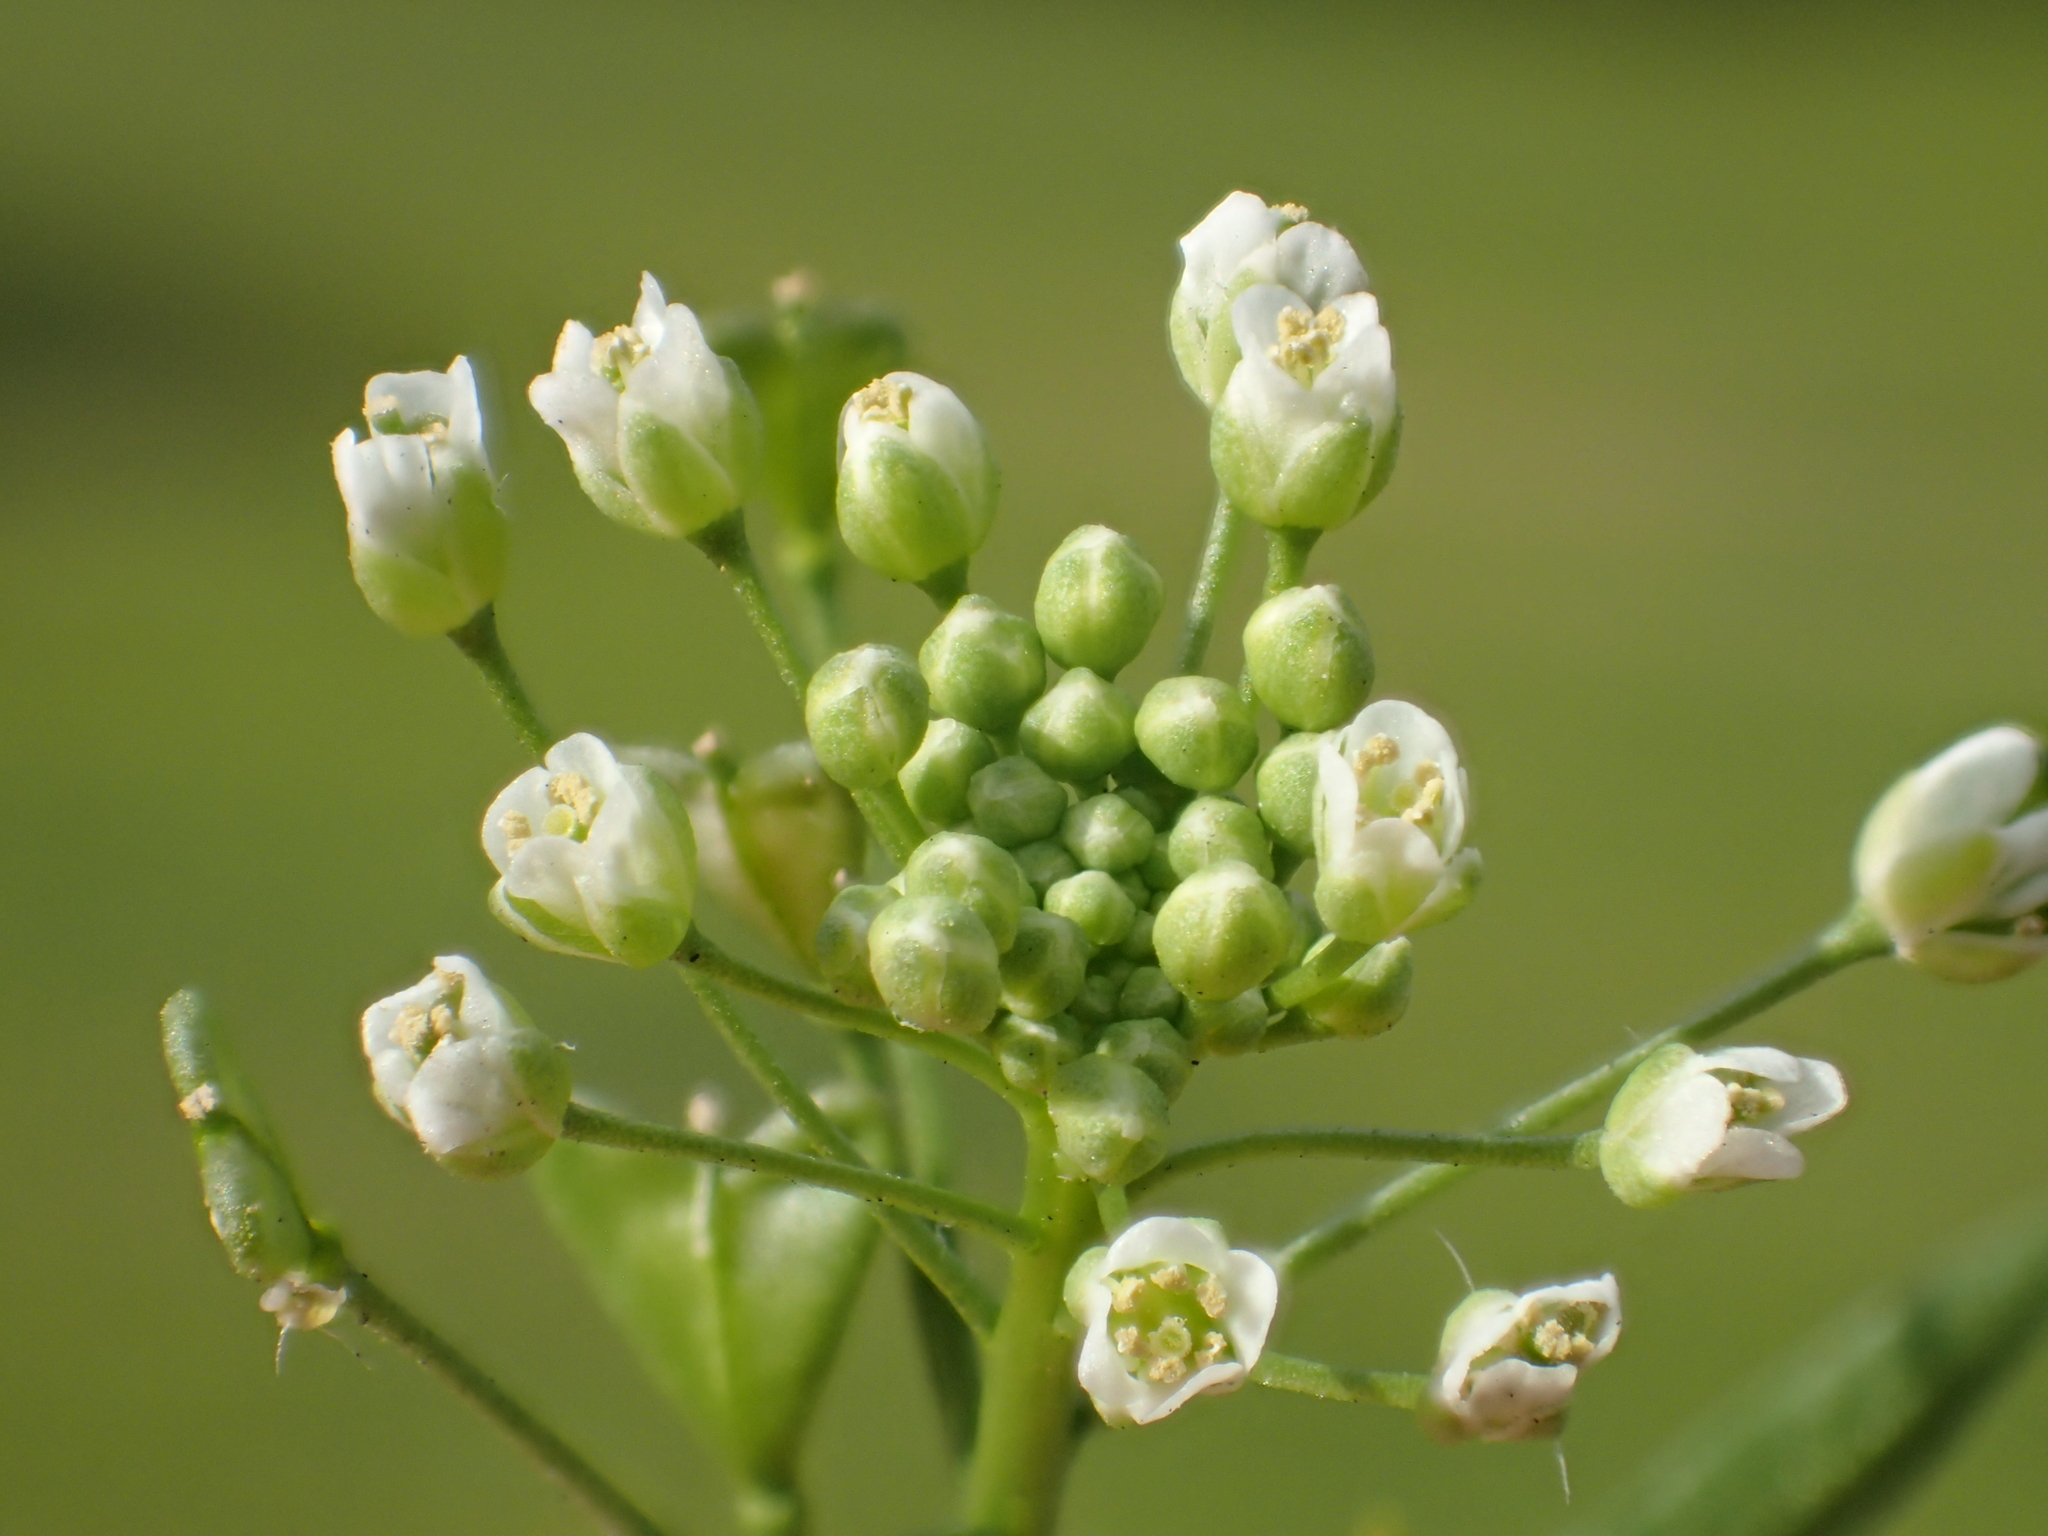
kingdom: Plantae
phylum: Tracheophyta
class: Magnoliopsida
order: Brassicales
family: Brassicaceae
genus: Capsella
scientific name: Capsella bursa-pastoris
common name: Shepherd's purse
